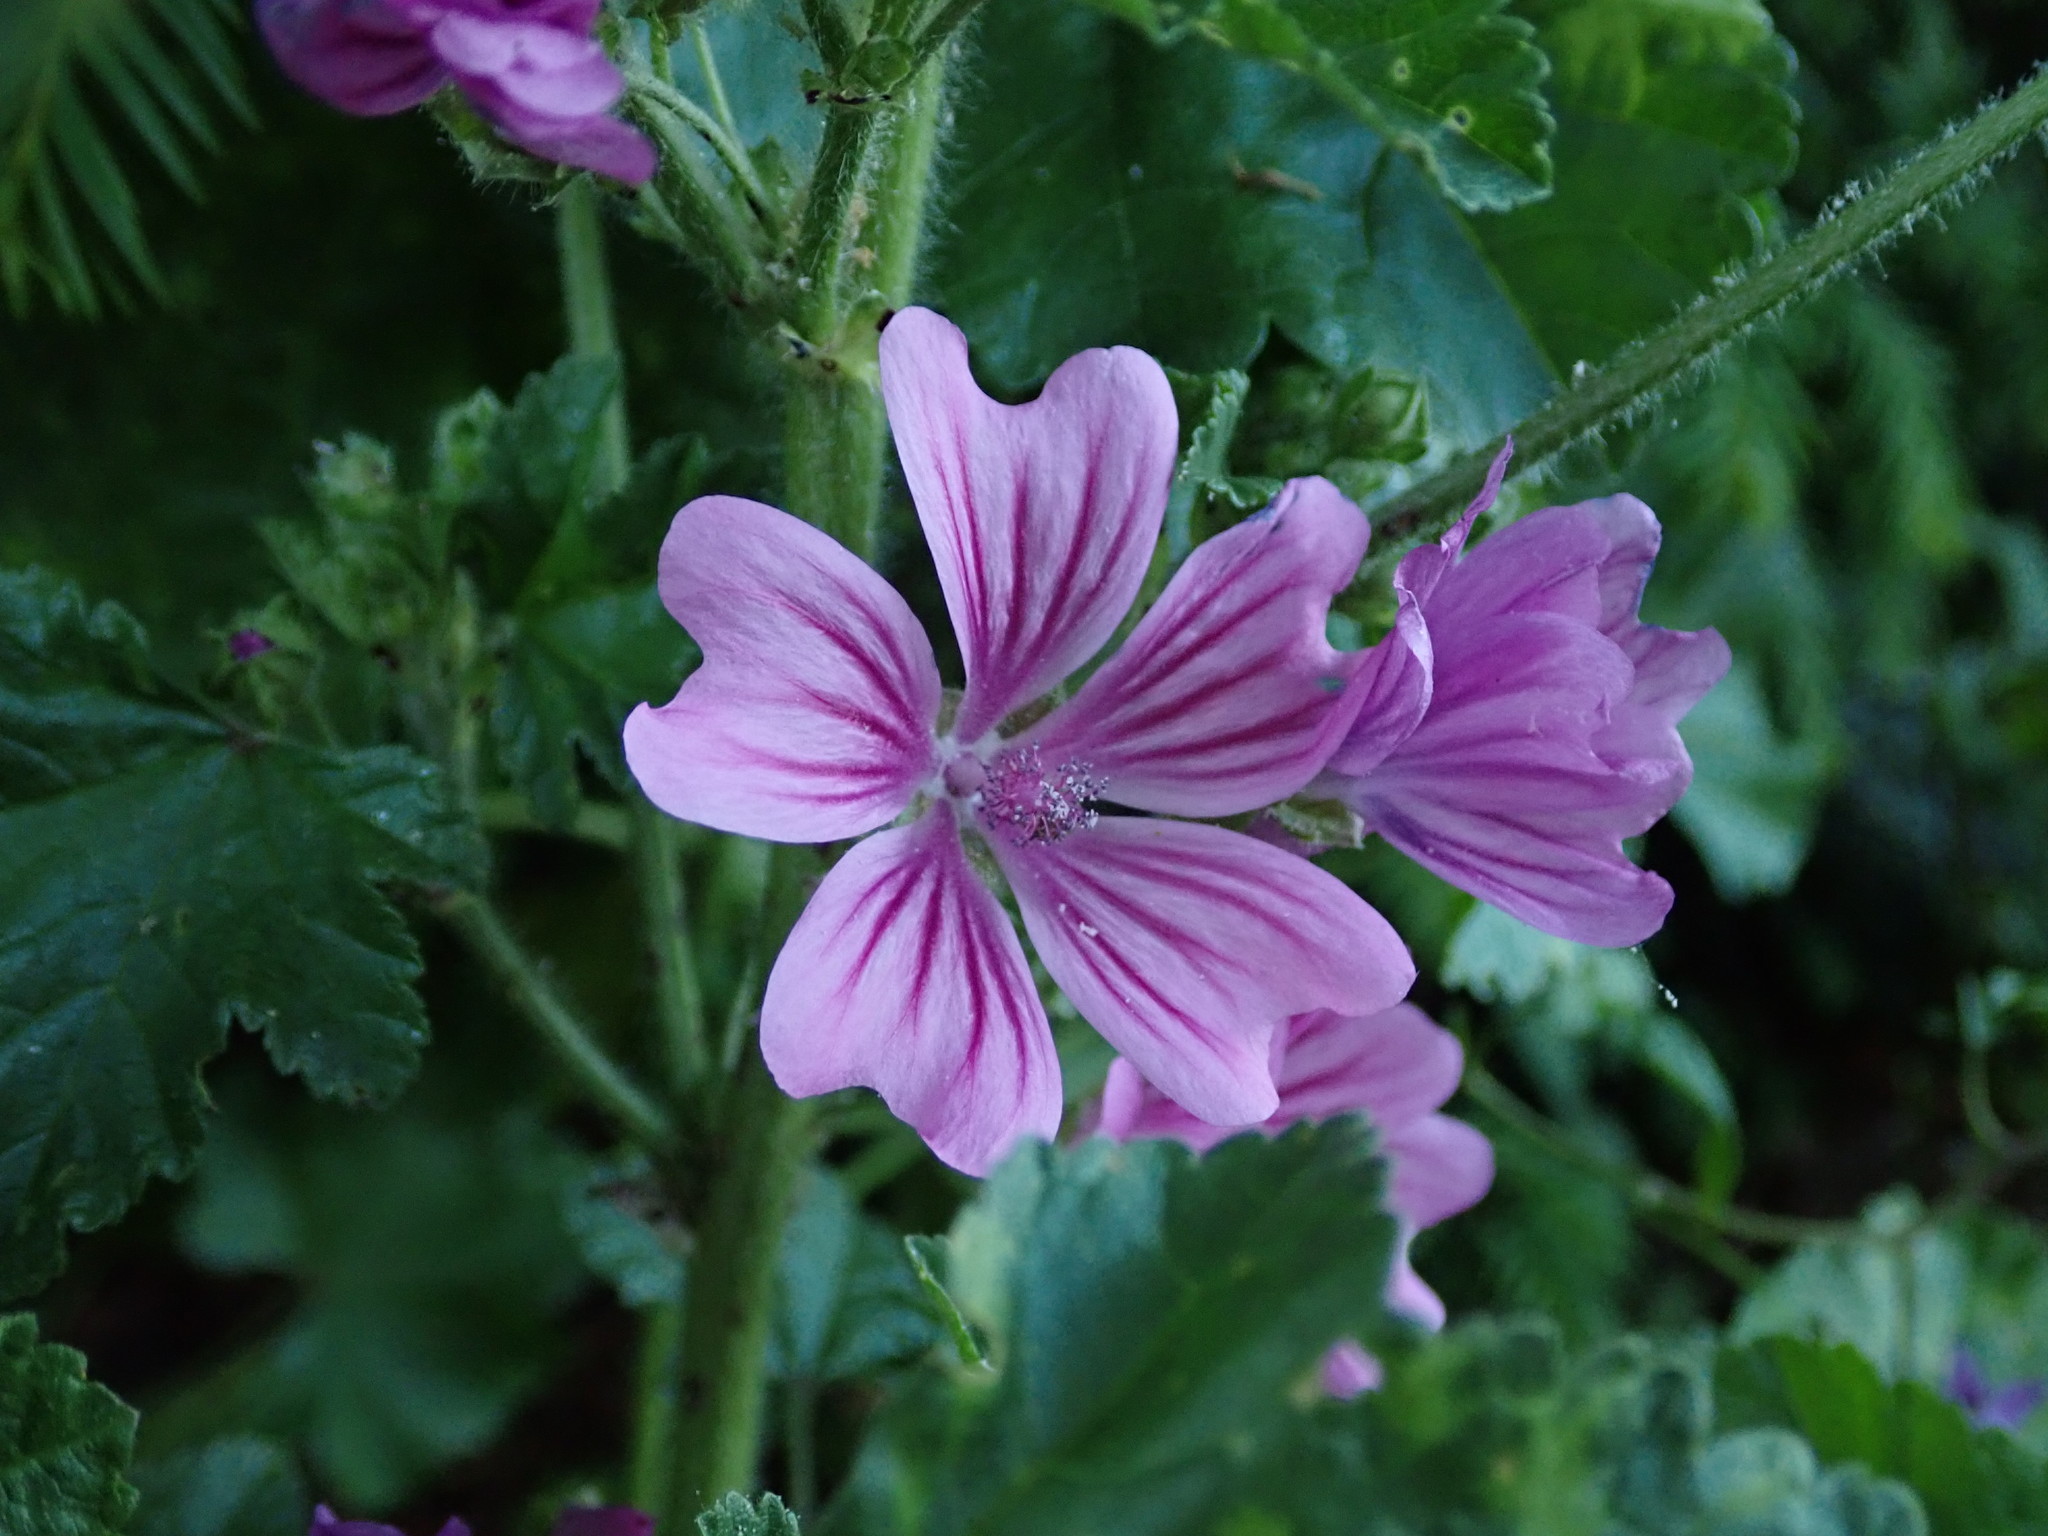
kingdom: Plantae
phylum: Tracheophyta
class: Magnoliopsida
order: Malvales
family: Malvaceae
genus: Malva
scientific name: Malva sylvestris
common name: Common mallow
